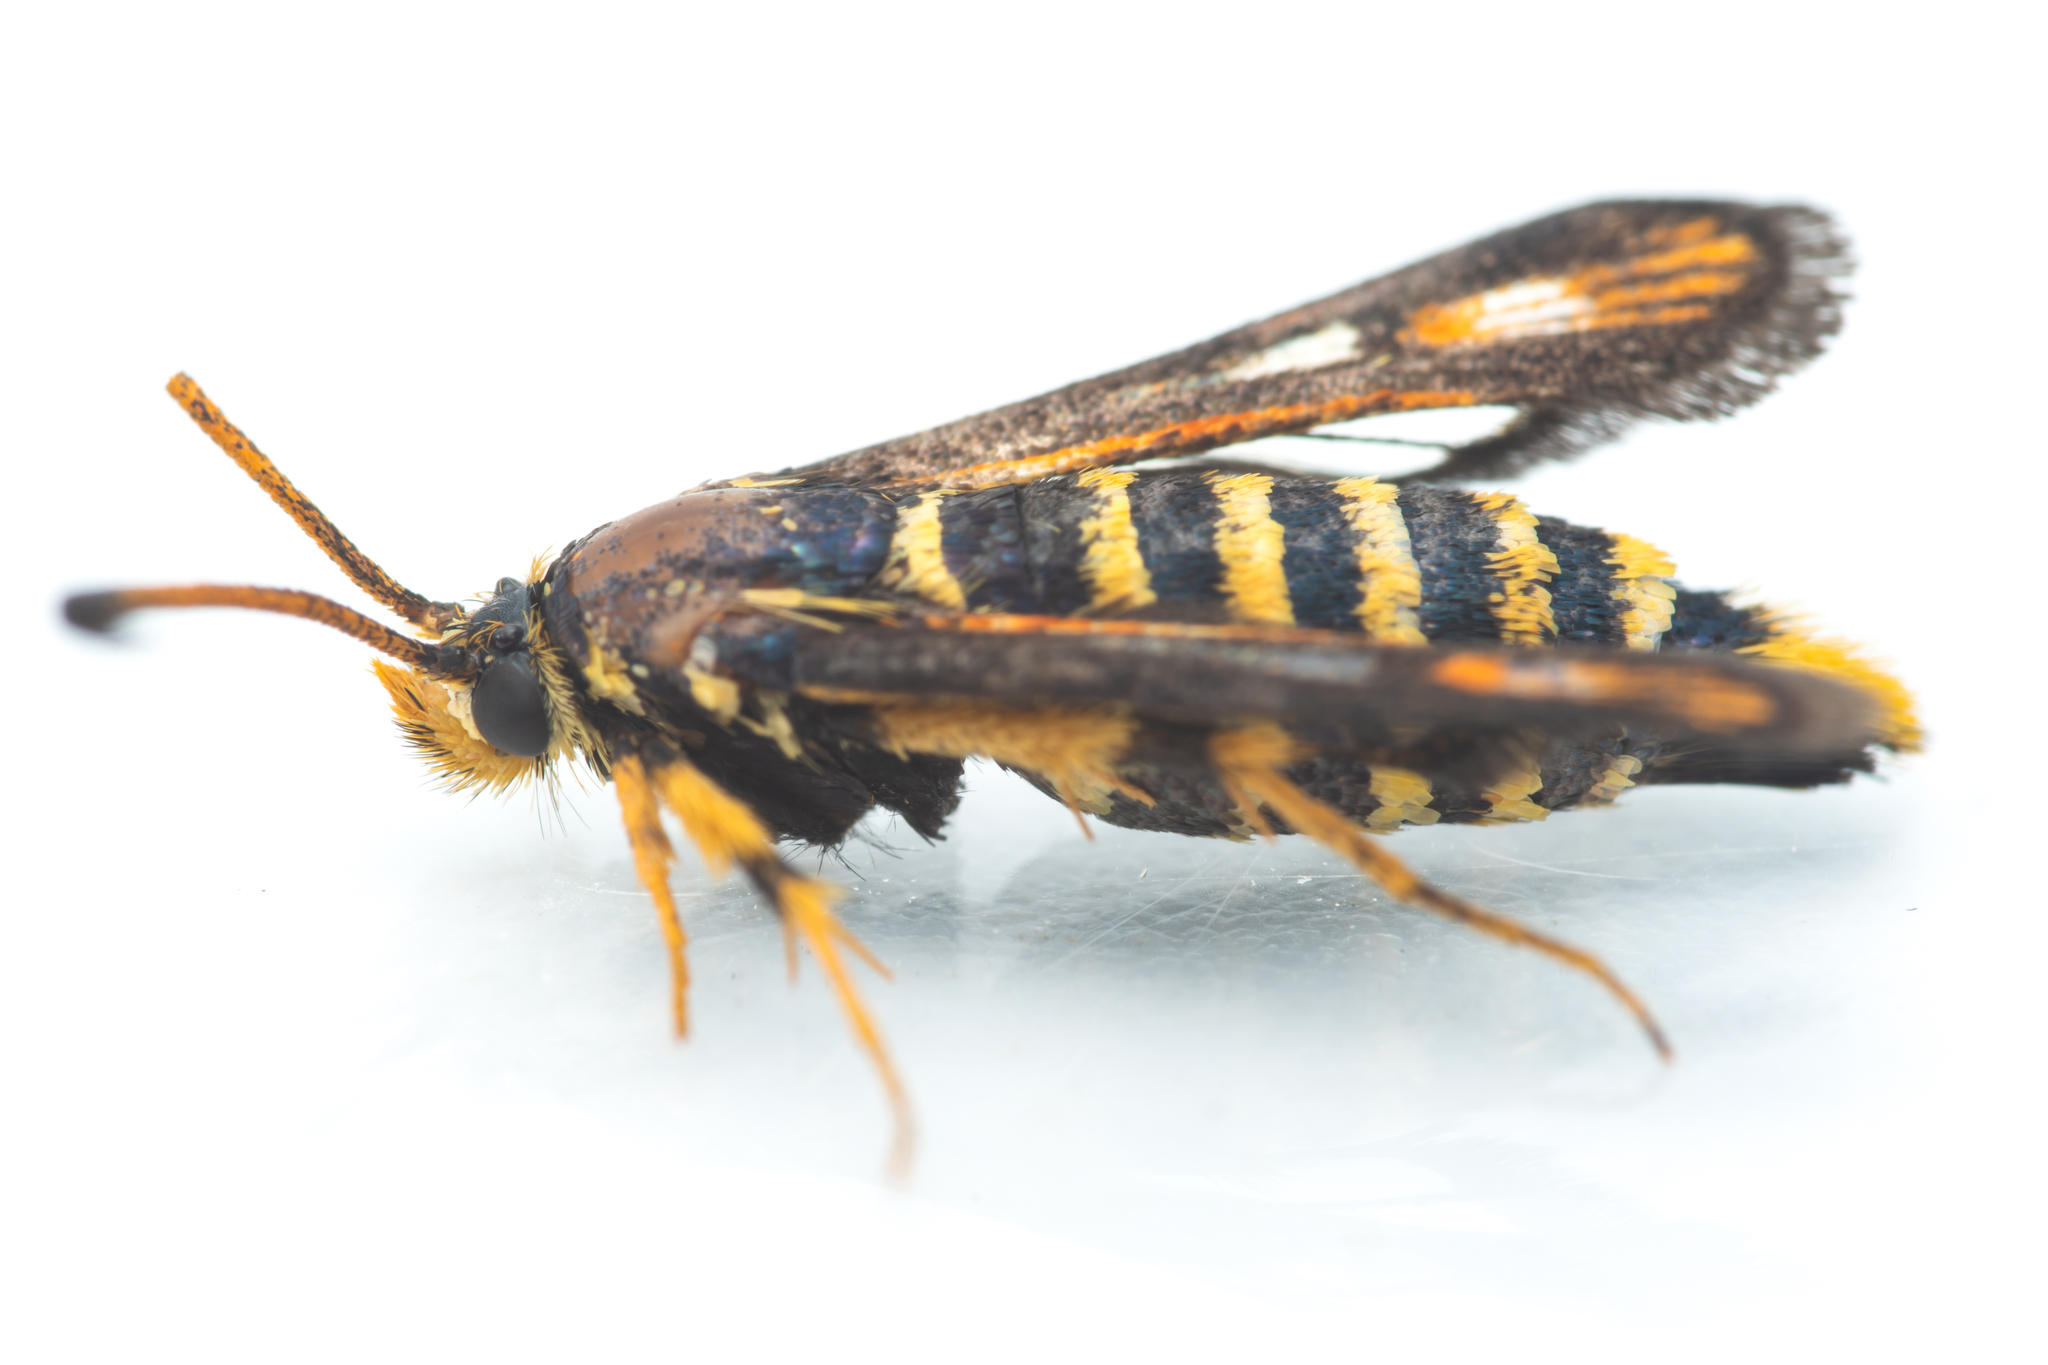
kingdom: Animalia
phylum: Arthropoda
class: Insecta
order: Lepidoptera
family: Sesiidae
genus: Bembecia
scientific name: Bembecia ichneumoniformis
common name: Six-belted clearwing
